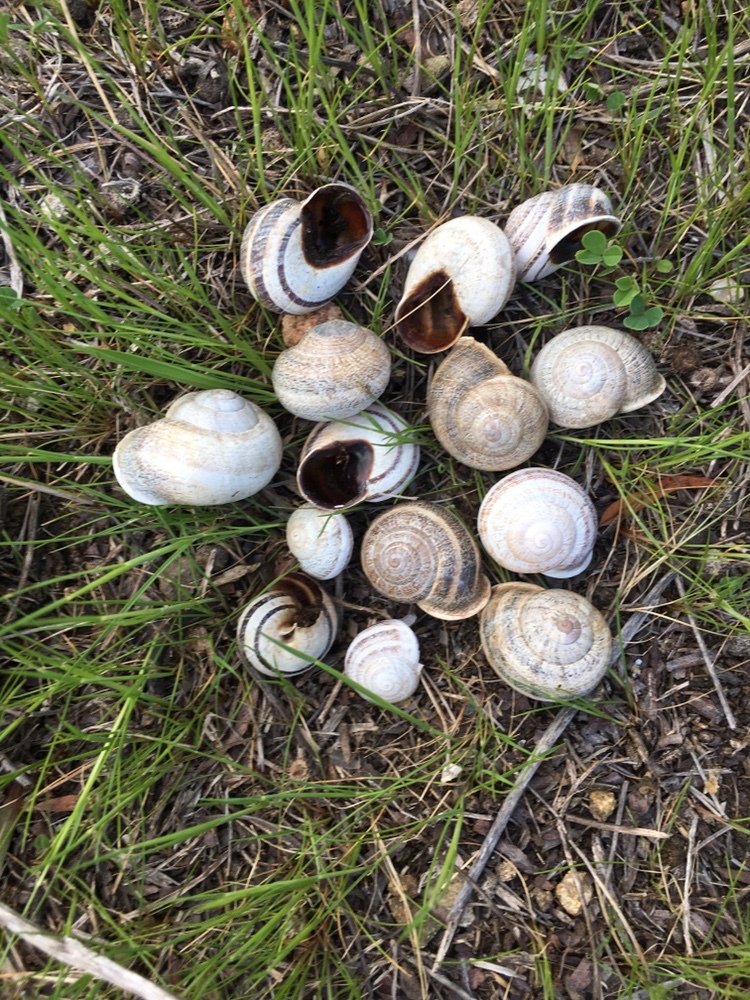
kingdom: Animalia
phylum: Mollusca
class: Gastropoda
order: Stylommatophora
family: Helicidae
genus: Otala
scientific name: Otala lactea
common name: Milk snail
